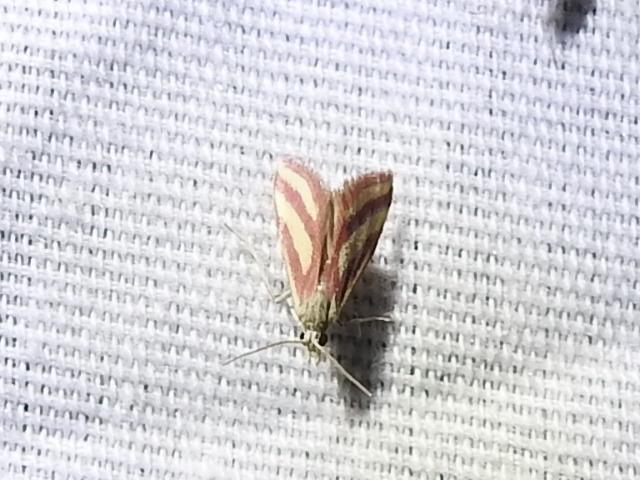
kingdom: Animalia
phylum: Arthropoda
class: Insecta
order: Lepidoptera
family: Crambidae
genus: Microtheoris
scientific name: Microtheoris vibicalis
